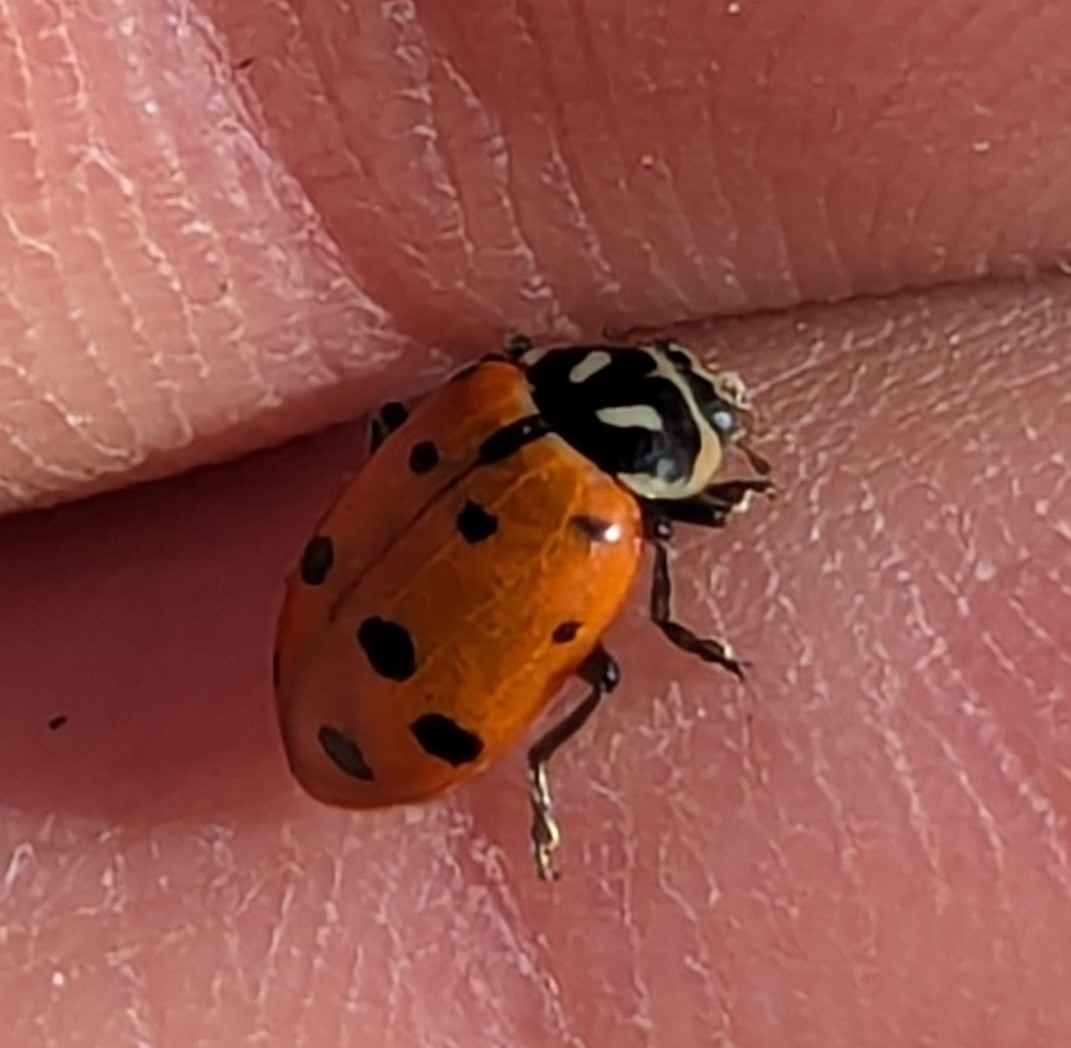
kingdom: Animalia
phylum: Arthropoda
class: Insecta
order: Coleoptera
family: Coccinellidae
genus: Hippodamia
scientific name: Hippodamia convergens
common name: Convergent lady beetle
